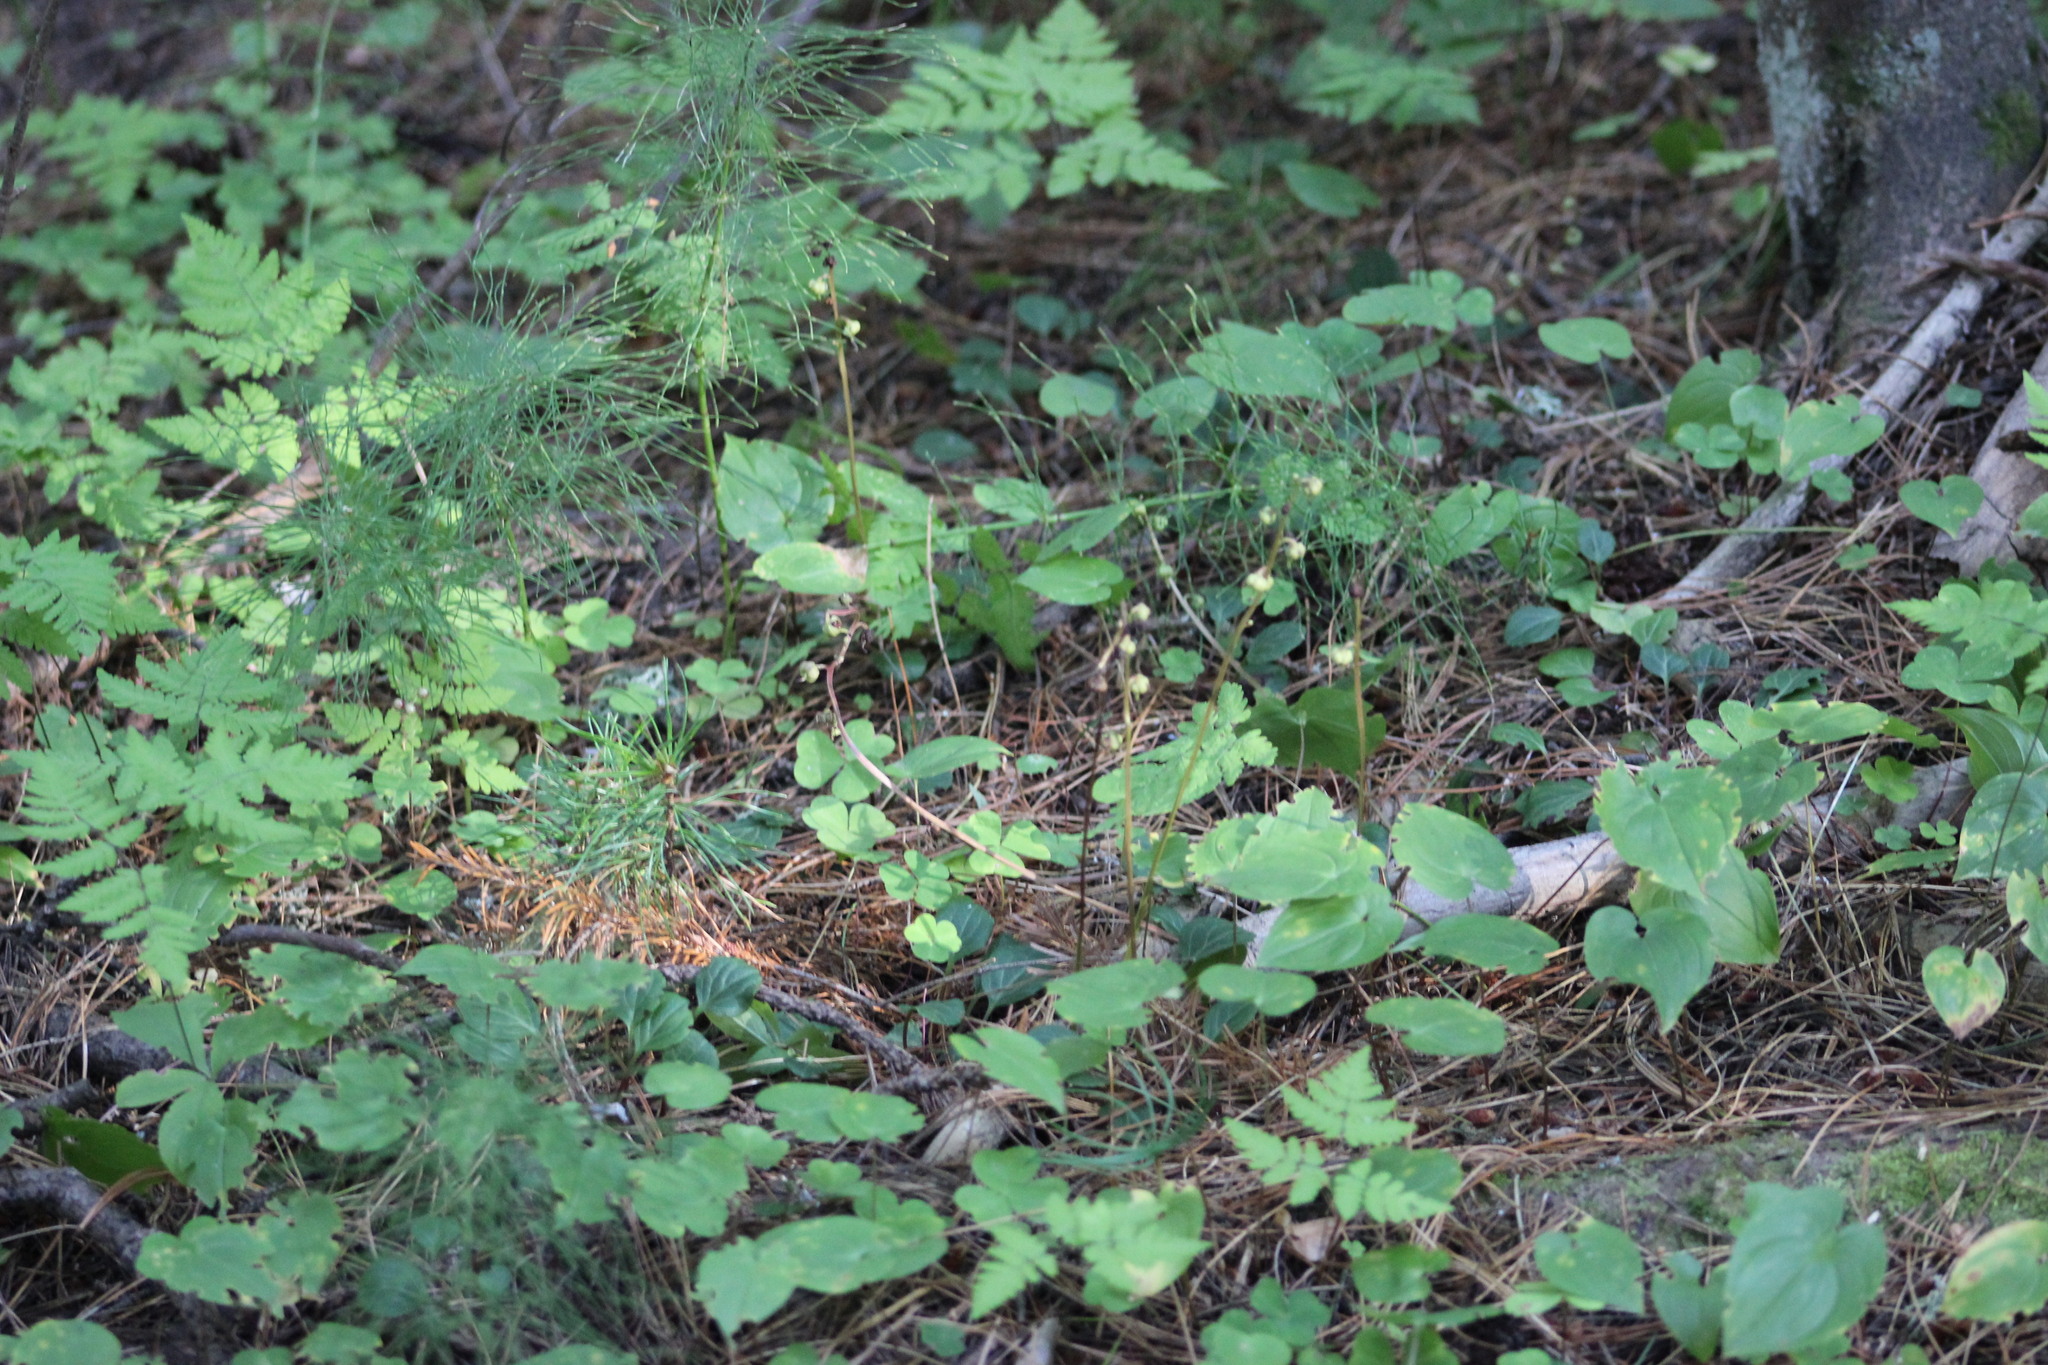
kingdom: Plantae
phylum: Tracheophyta
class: Magnoliopsida
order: Ericales
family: Ericaceae
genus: Pyrola
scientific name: Pyrola chlorantha
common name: Green wintergreen
